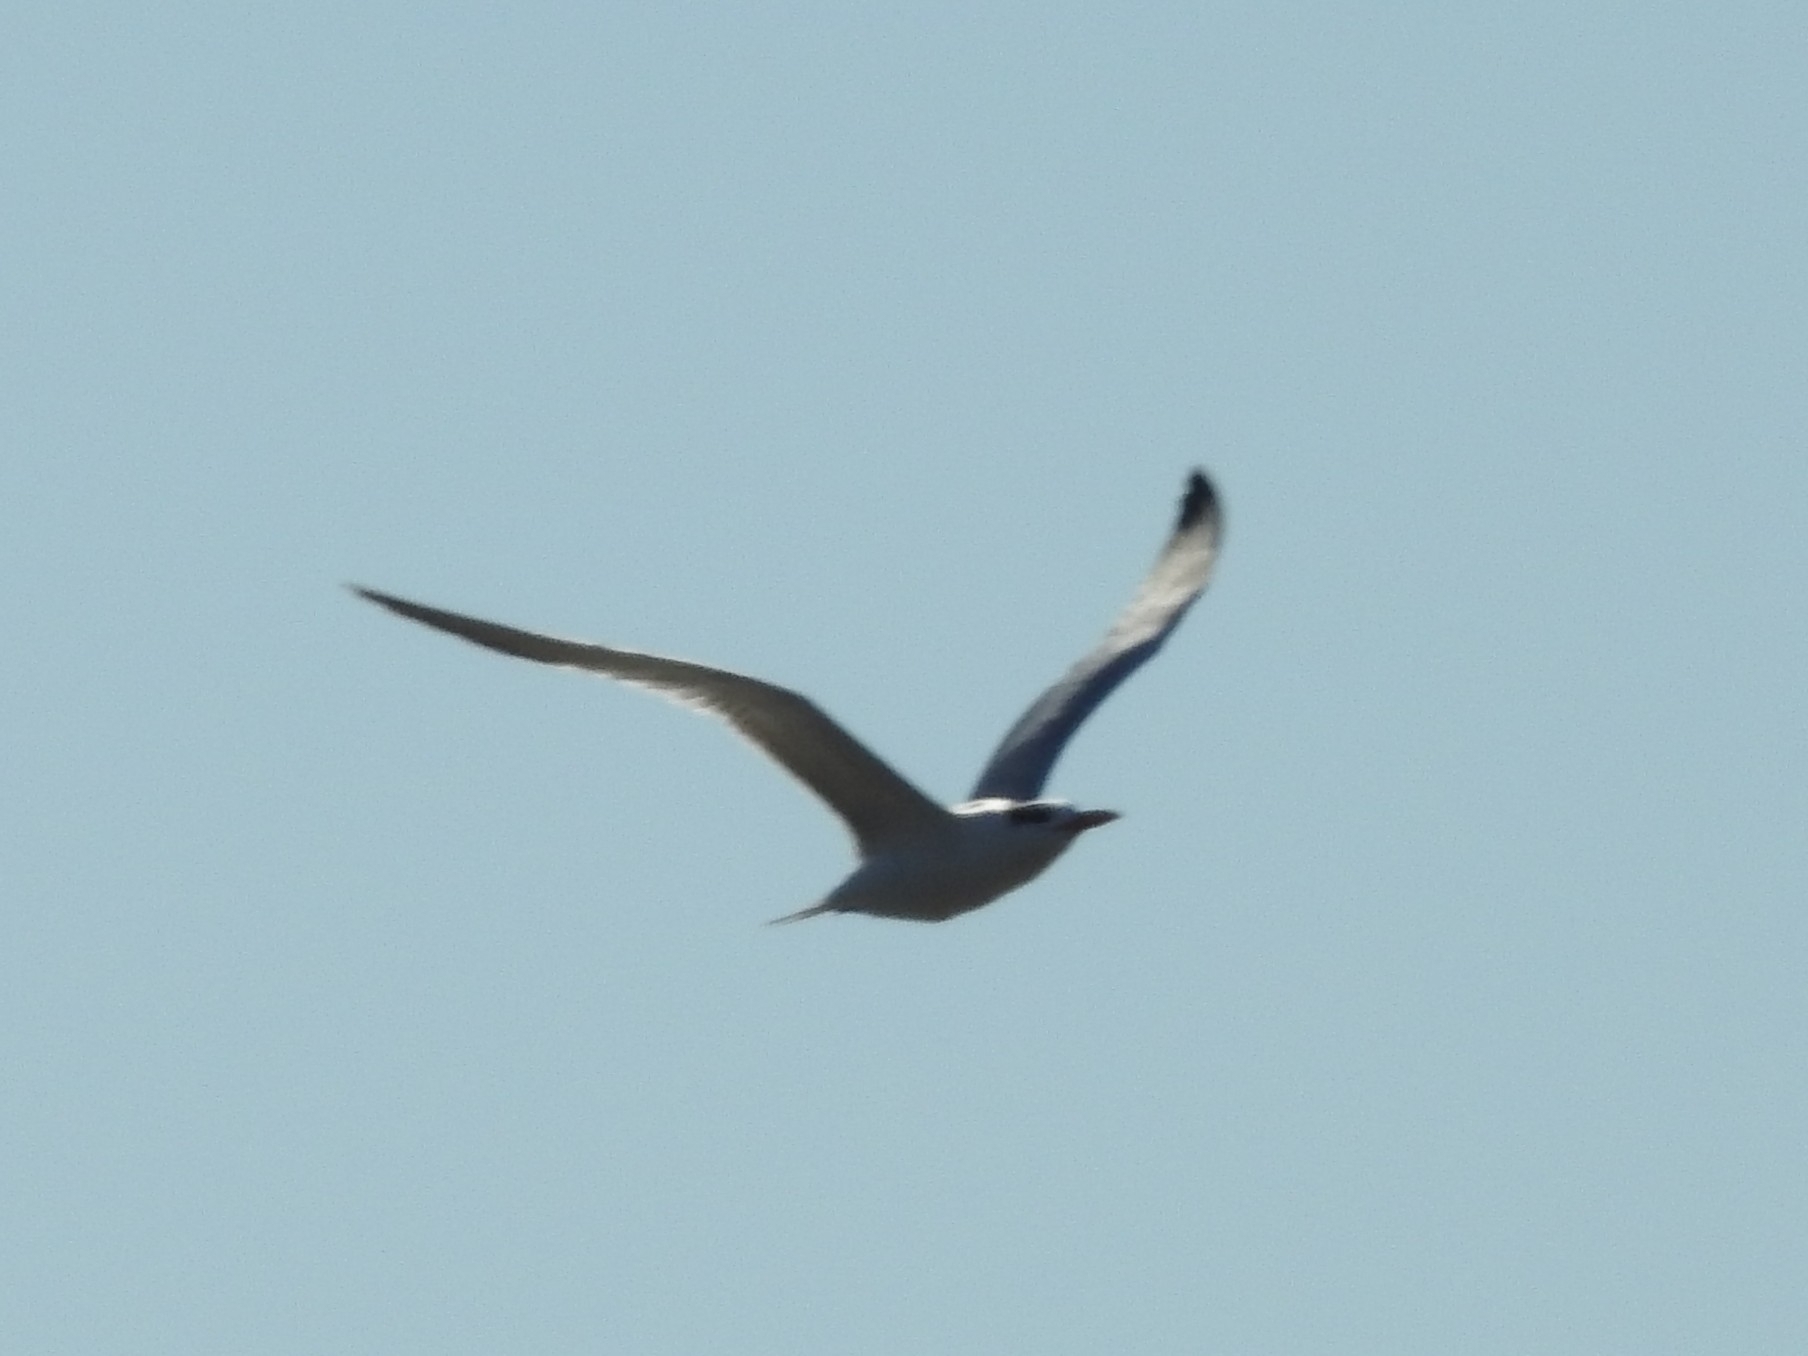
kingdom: Animalia
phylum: Chordata
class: Aves
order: Charadriiformes
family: Laridae
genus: Thalasseus
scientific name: Thalasseus maximus
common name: Royal tern
